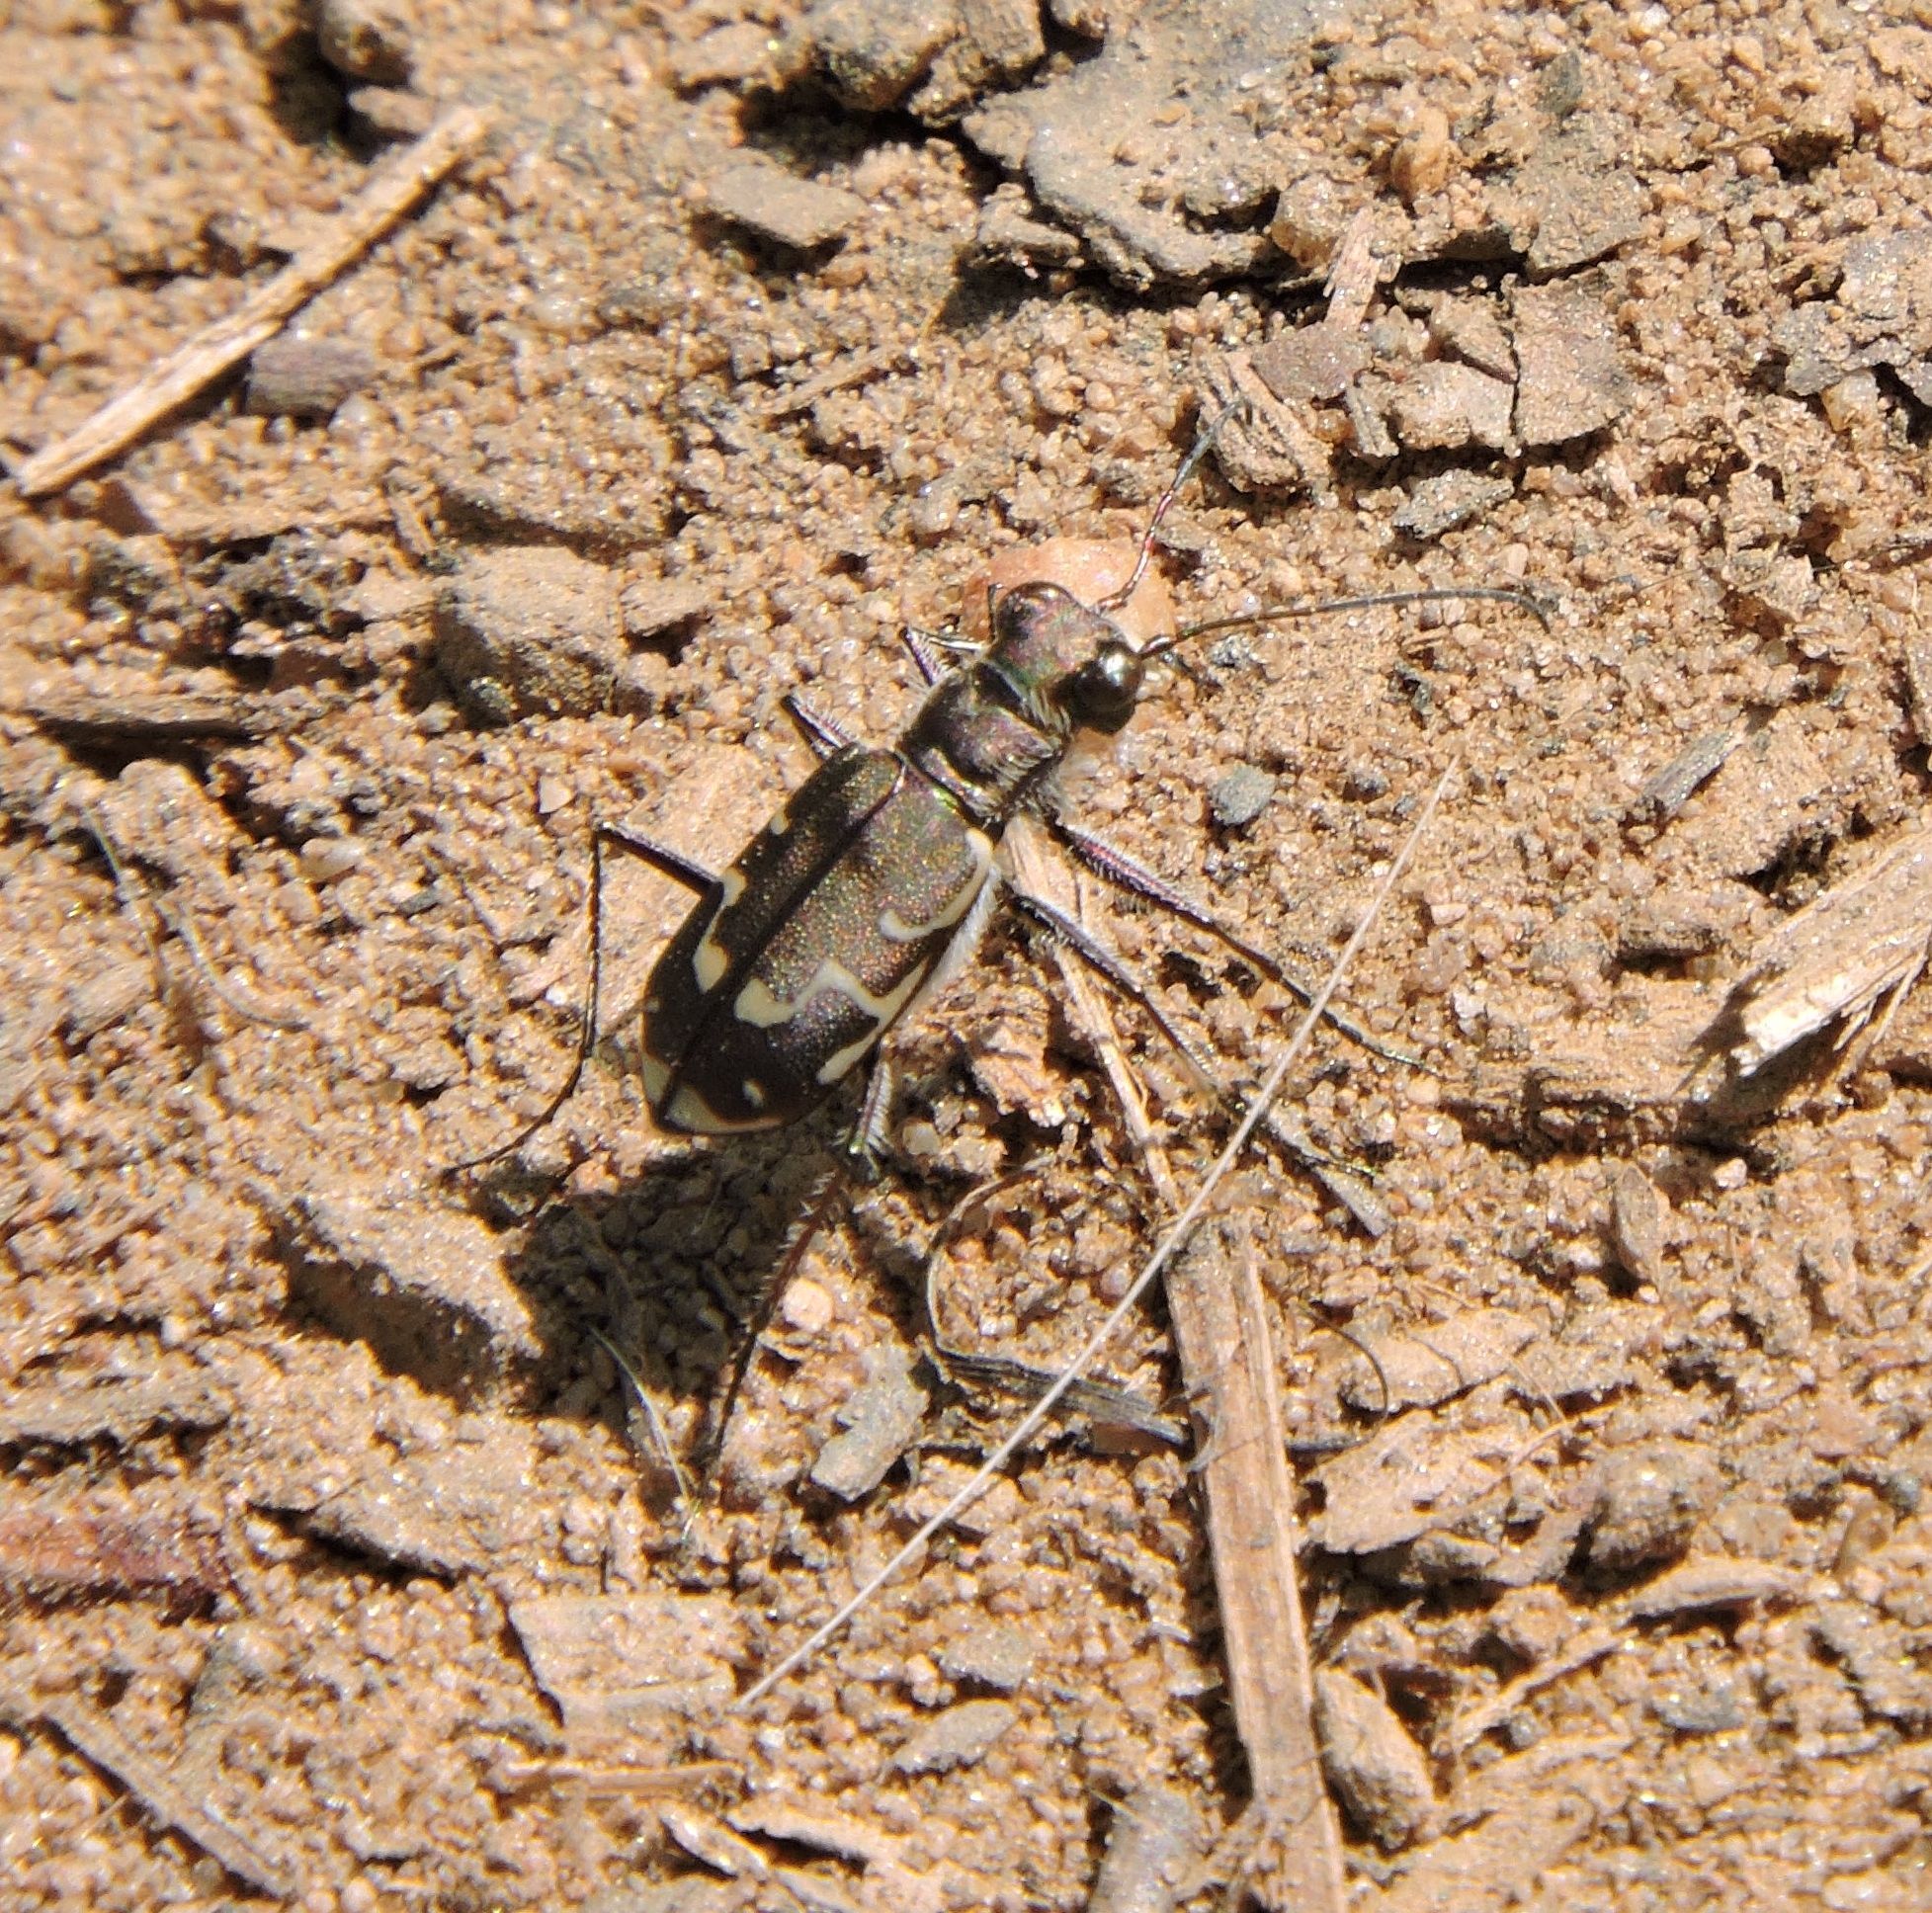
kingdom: Animalia
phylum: Arthropoda
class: Insecta
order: Coleoptera
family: Carabidae
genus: Cicindela
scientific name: Cicindela repanda
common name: Bronzed tiger beetle
